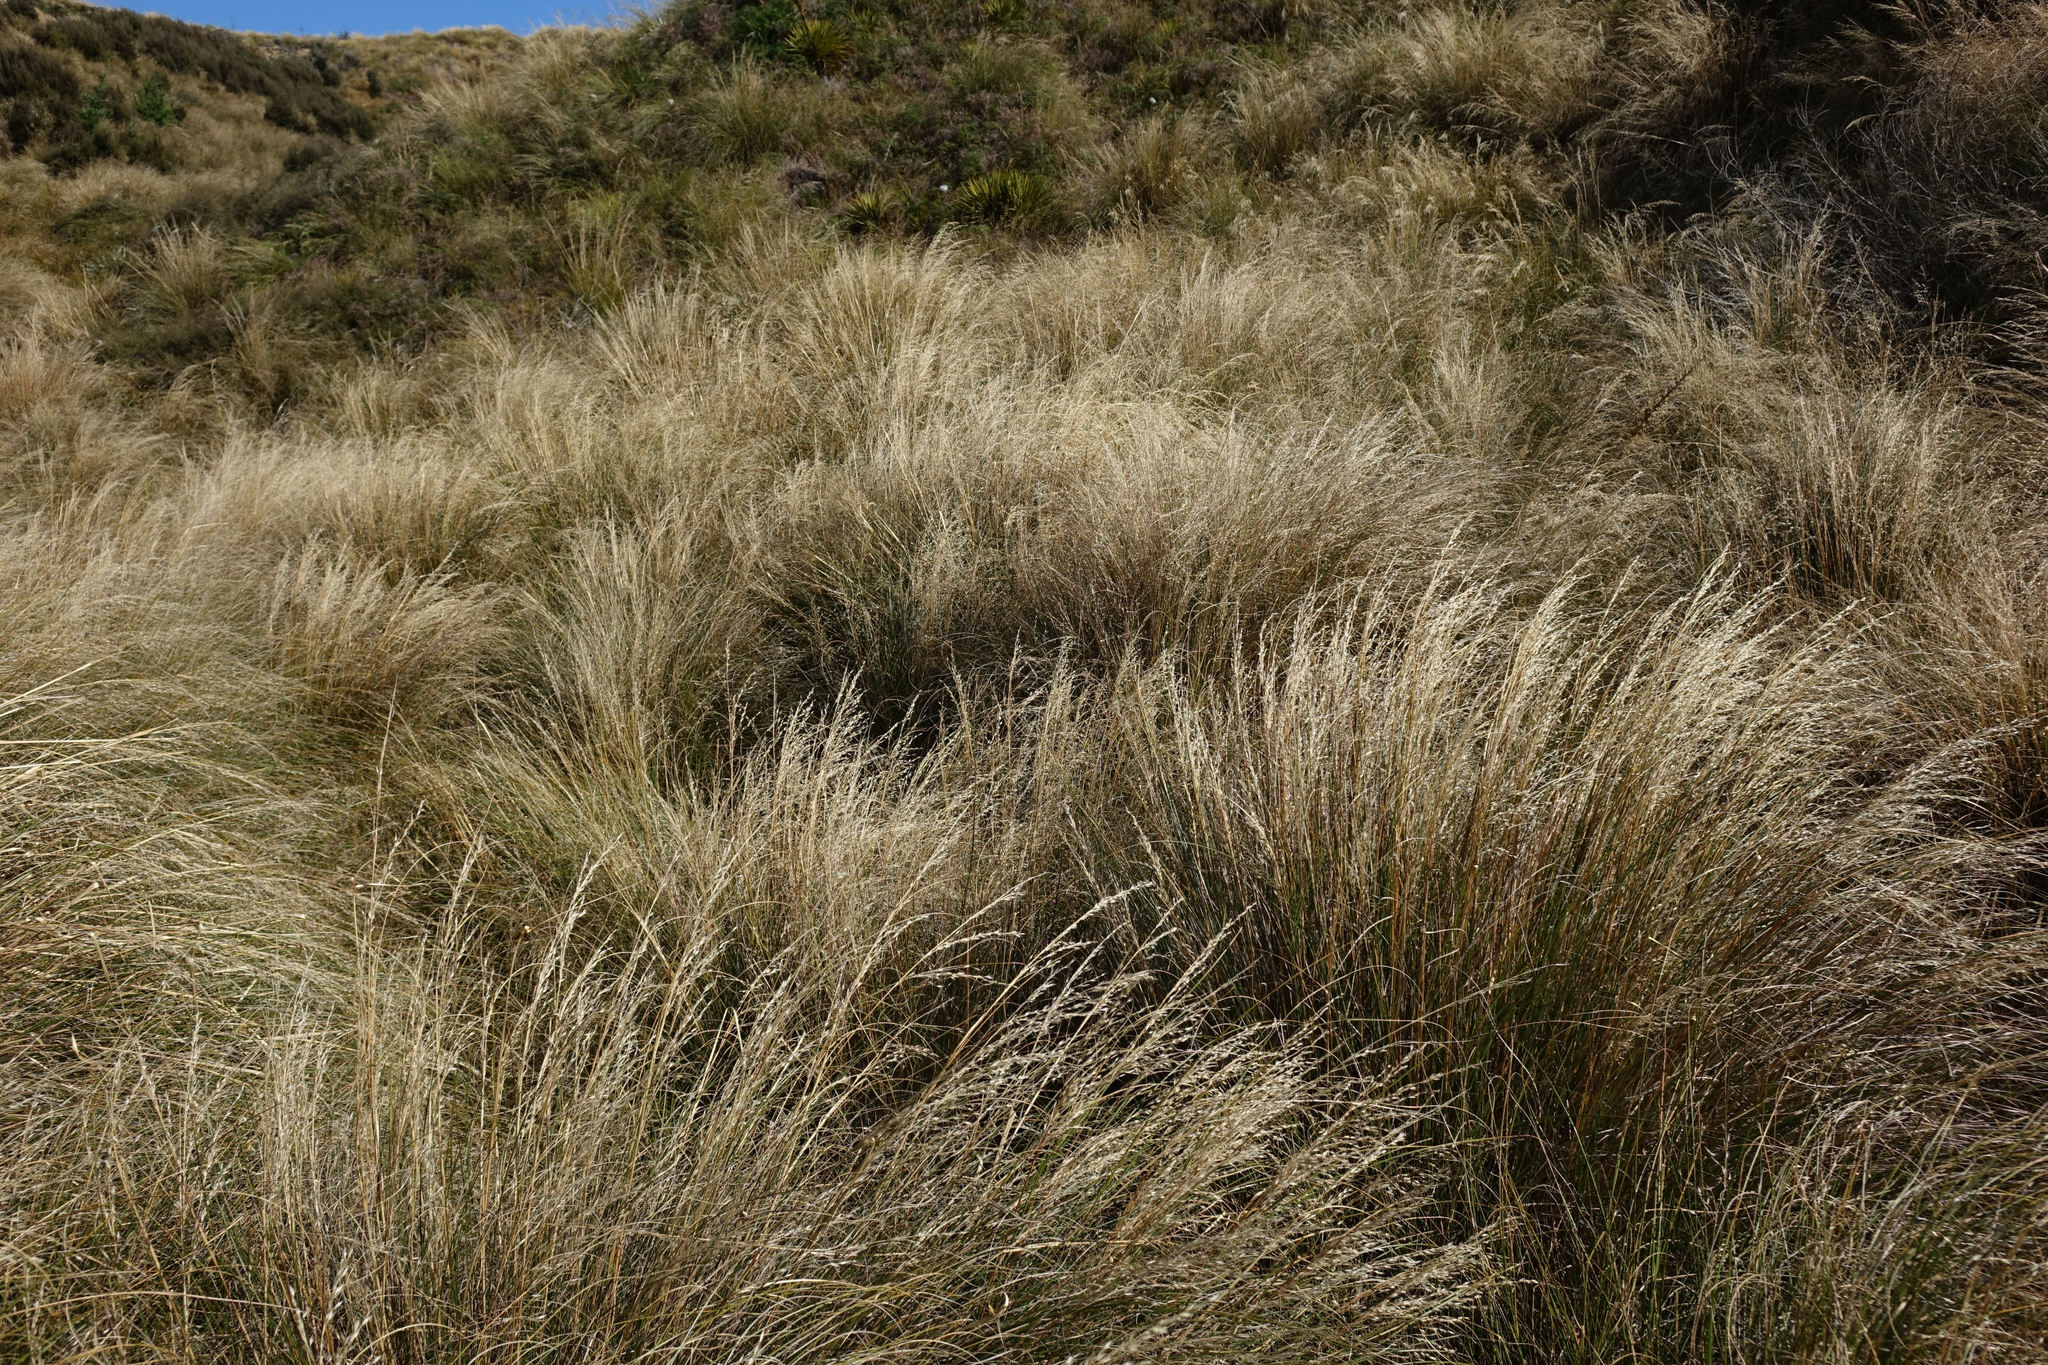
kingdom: Plantae
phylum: Tracheophyta
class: Liliopsida
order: Poales
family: Poaceae
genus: Chionochloa
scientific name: Chionochloa rigida
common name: Narrow leaved snow tussock
